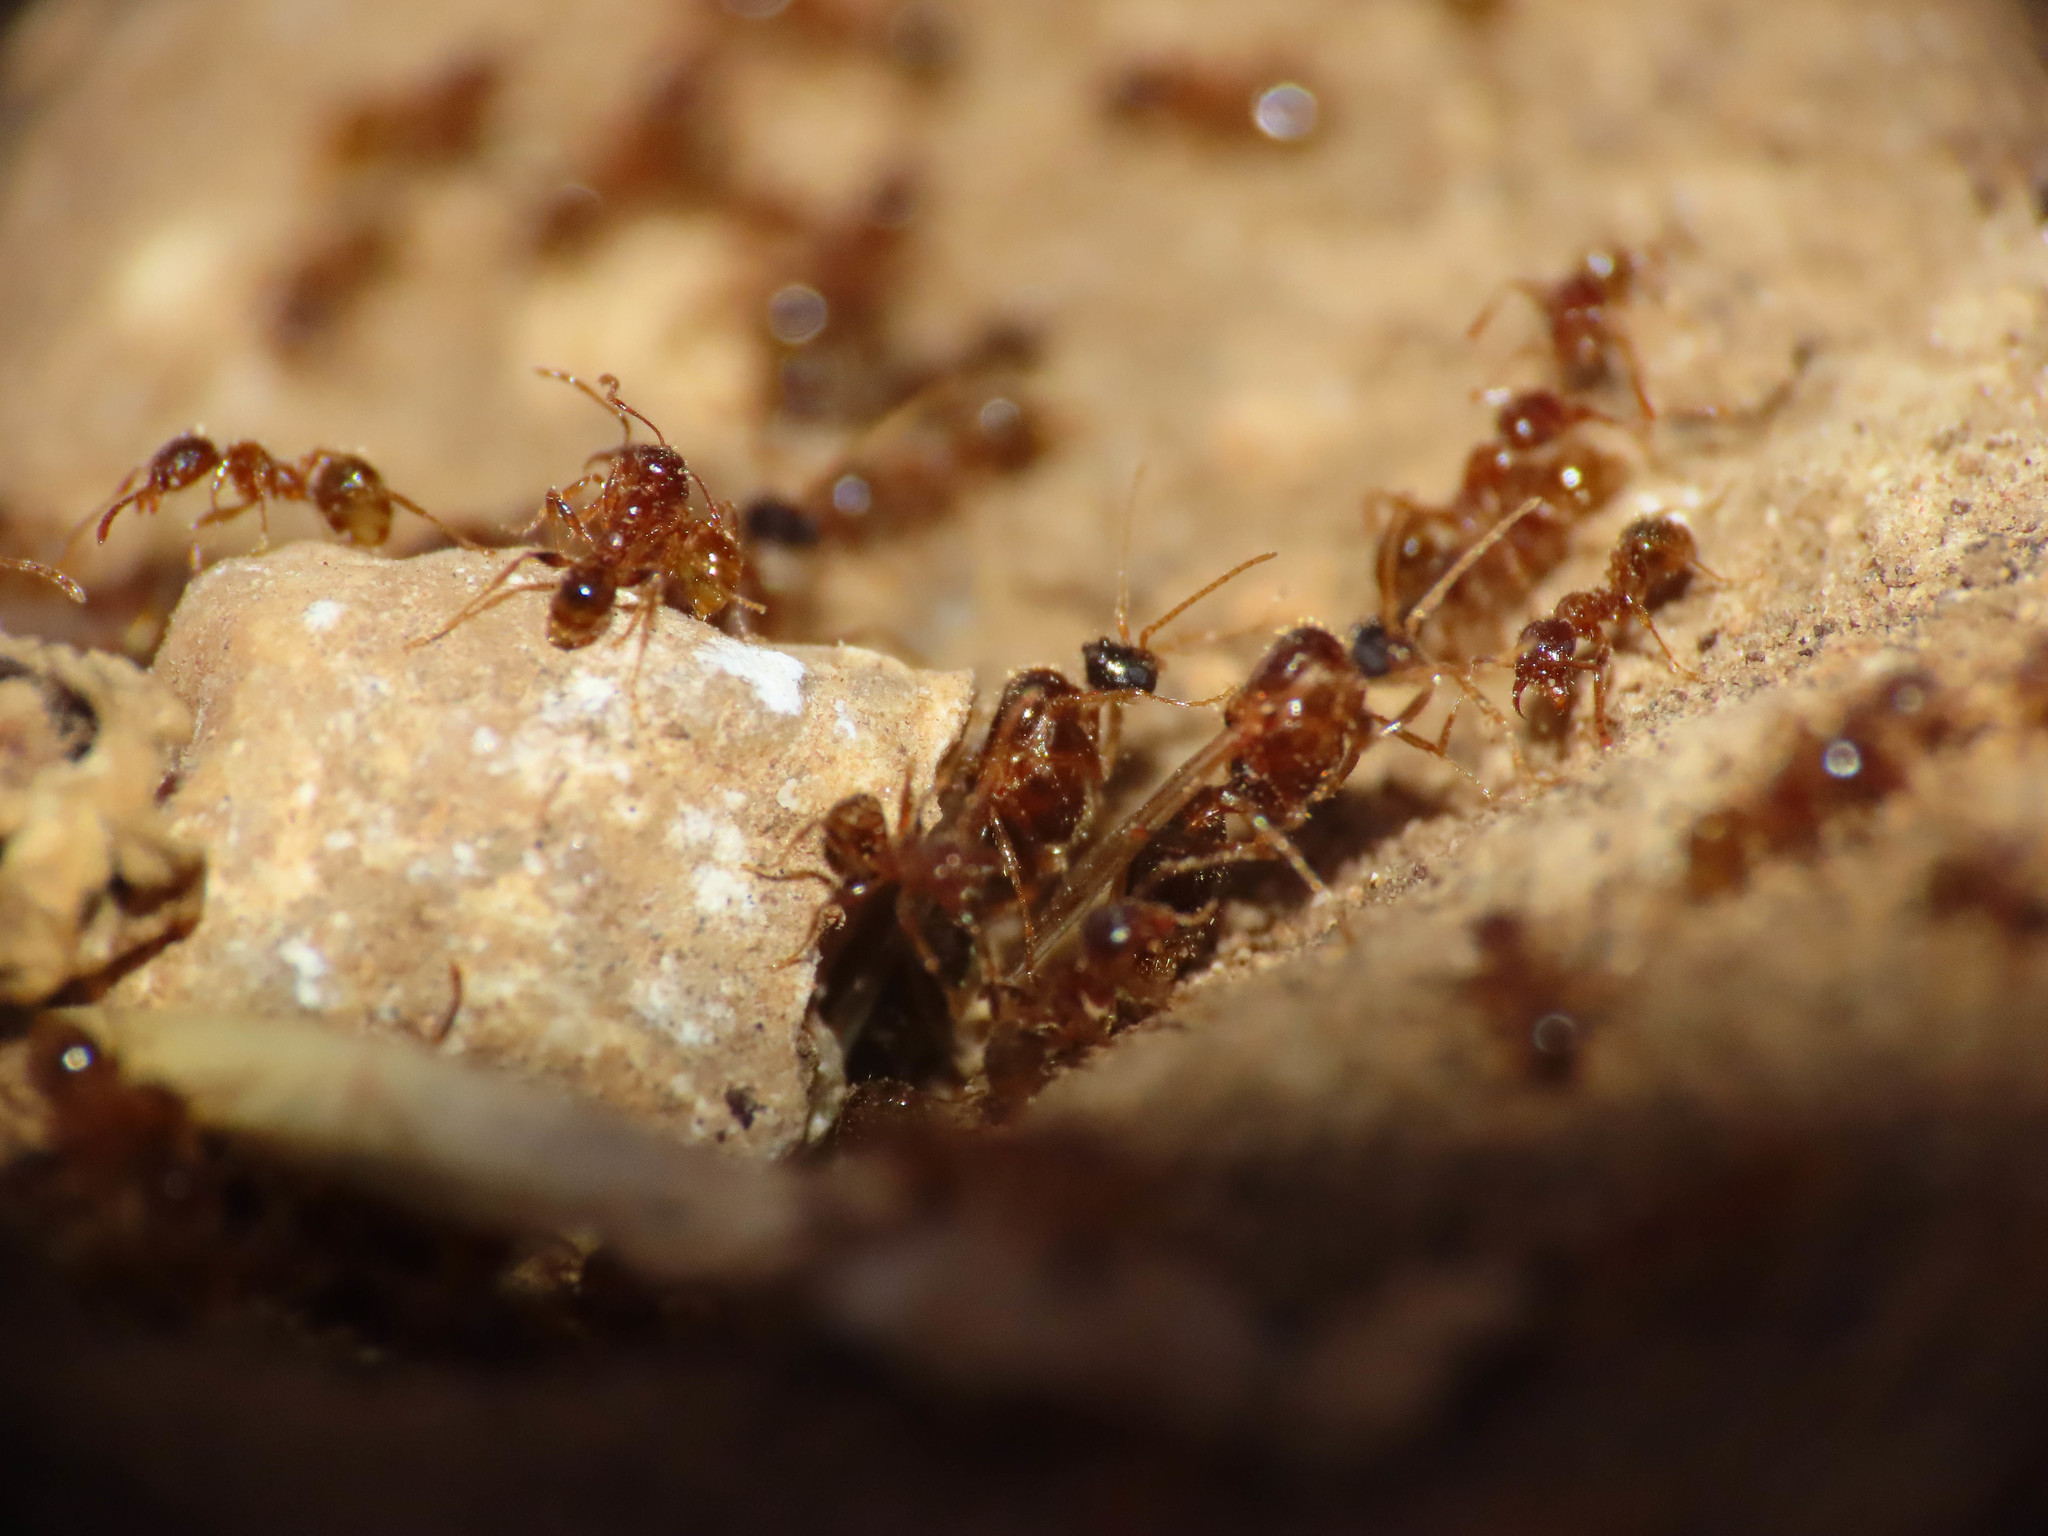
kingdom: Animalia
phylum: Arthropoda
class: Insecta
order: Hymenoptera
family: Formicidae
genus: Pheidole
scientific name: Pheidole pallidula
